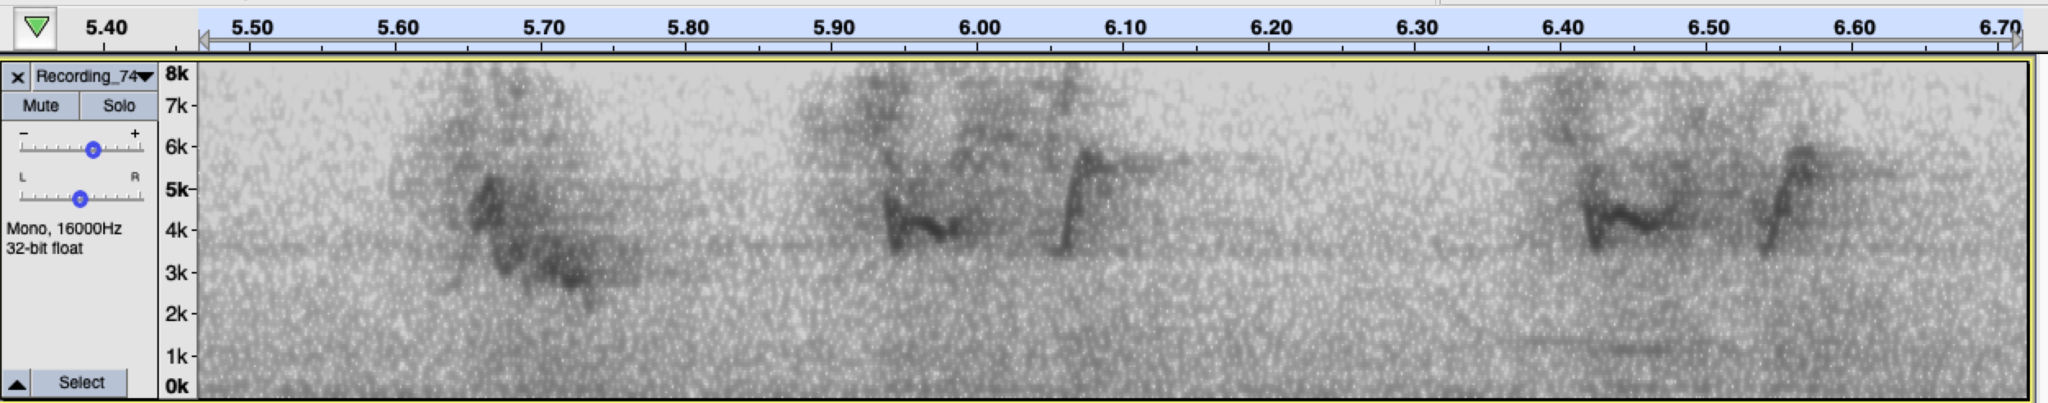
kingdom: Animalia
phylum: Chordata
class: Aves
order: Passeriformes
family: Passeridae
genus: Passer
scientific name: Passer domesticus
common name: House sparrow
